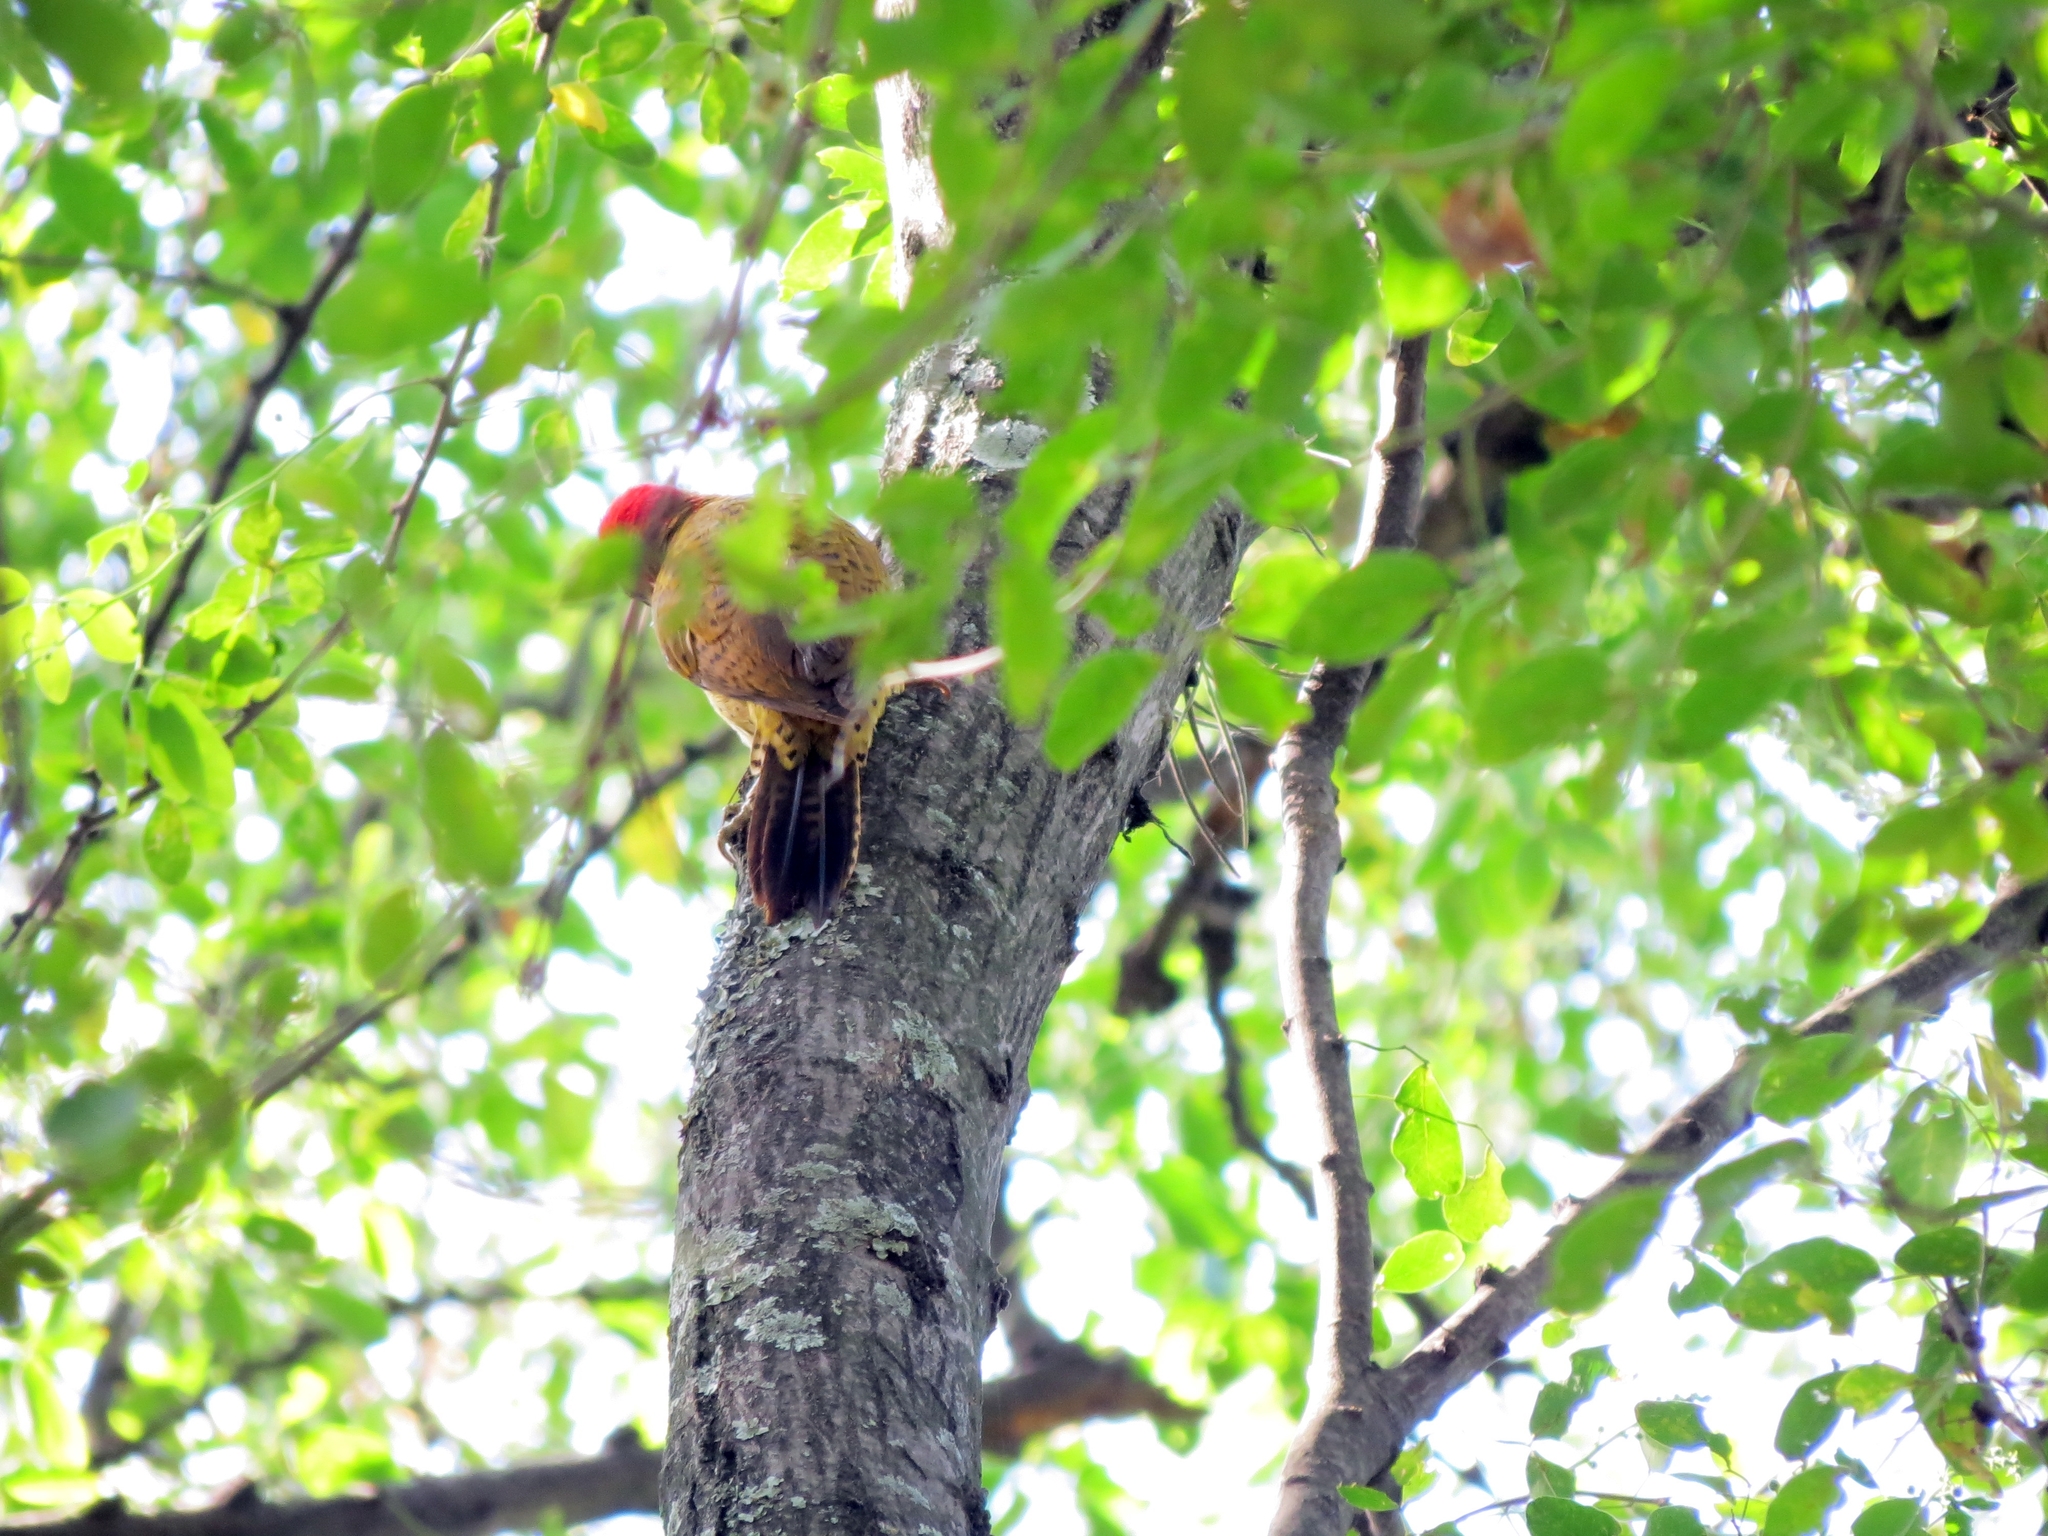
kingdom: Animalia
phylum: Chordata
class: Aves
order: Piciformes
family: Picidae
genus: Colaptes
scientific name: Colaptes punctigula
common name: Spot-breasted woodpecker
